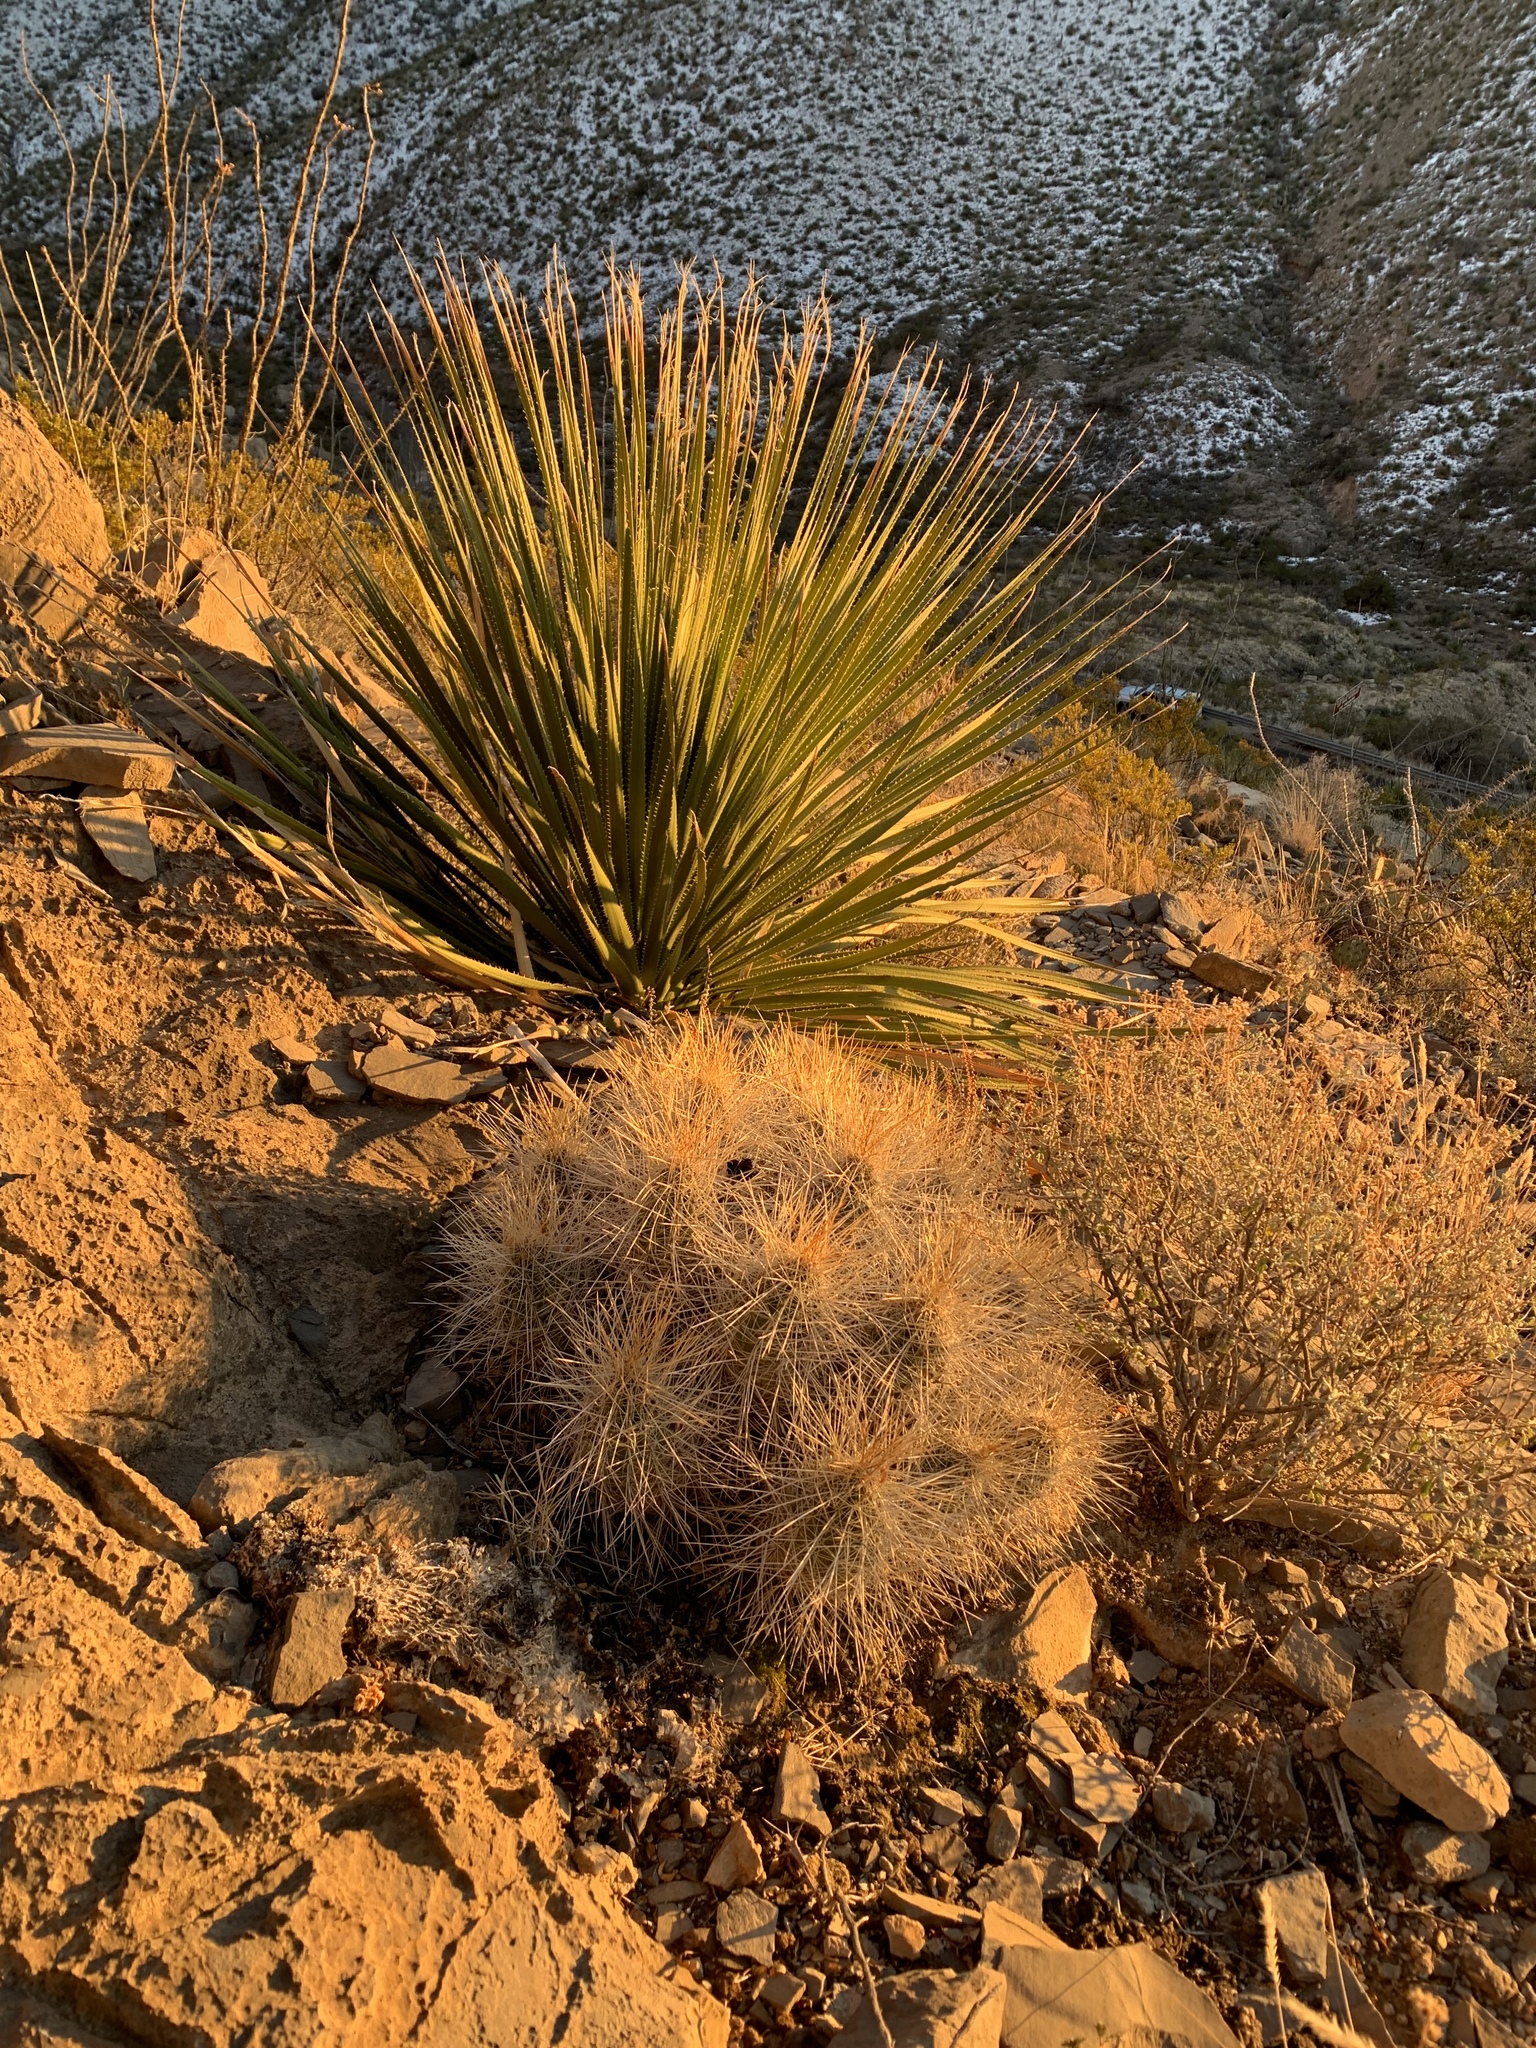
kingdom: Plantae
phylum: Tracheophyta
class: Liliopsida
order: Asparagales
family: Asparagaceae
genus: Dasylirion
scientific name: Dasylirion wheeleri
